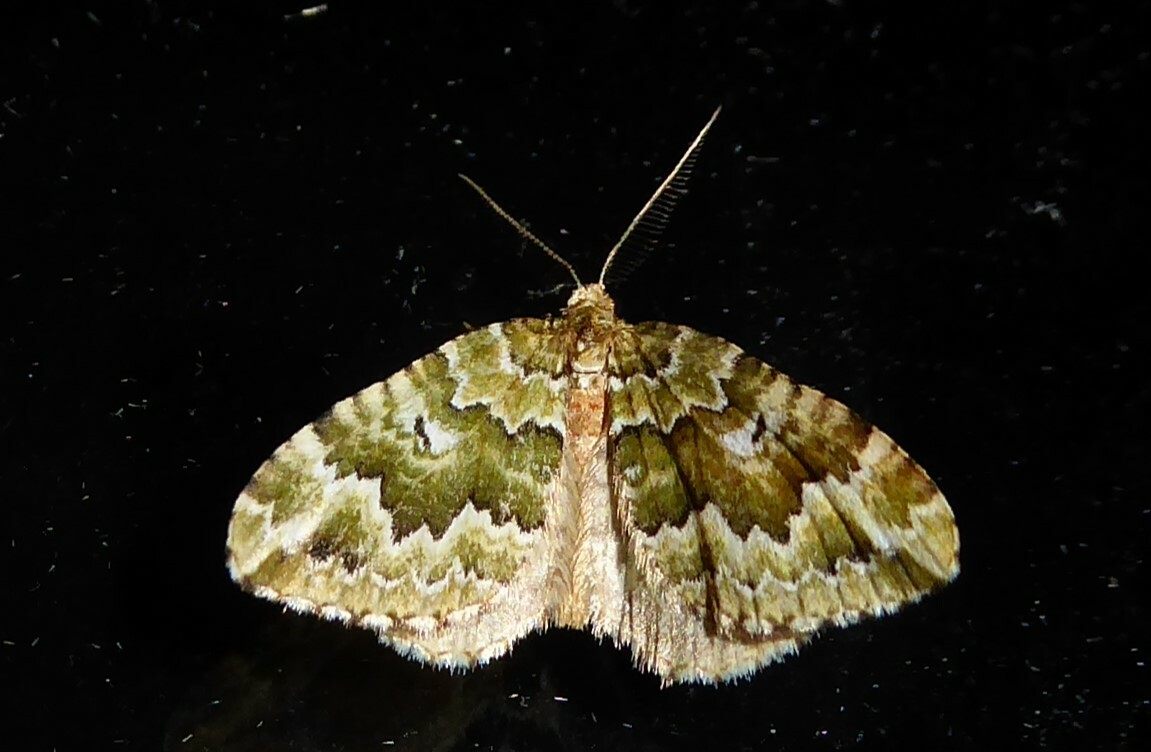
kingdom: Animalia
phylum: Arthropoda
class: Insecta
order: Lepidoptera
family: Geometridae
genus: Asaphodes
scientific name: Asaphodes beata
